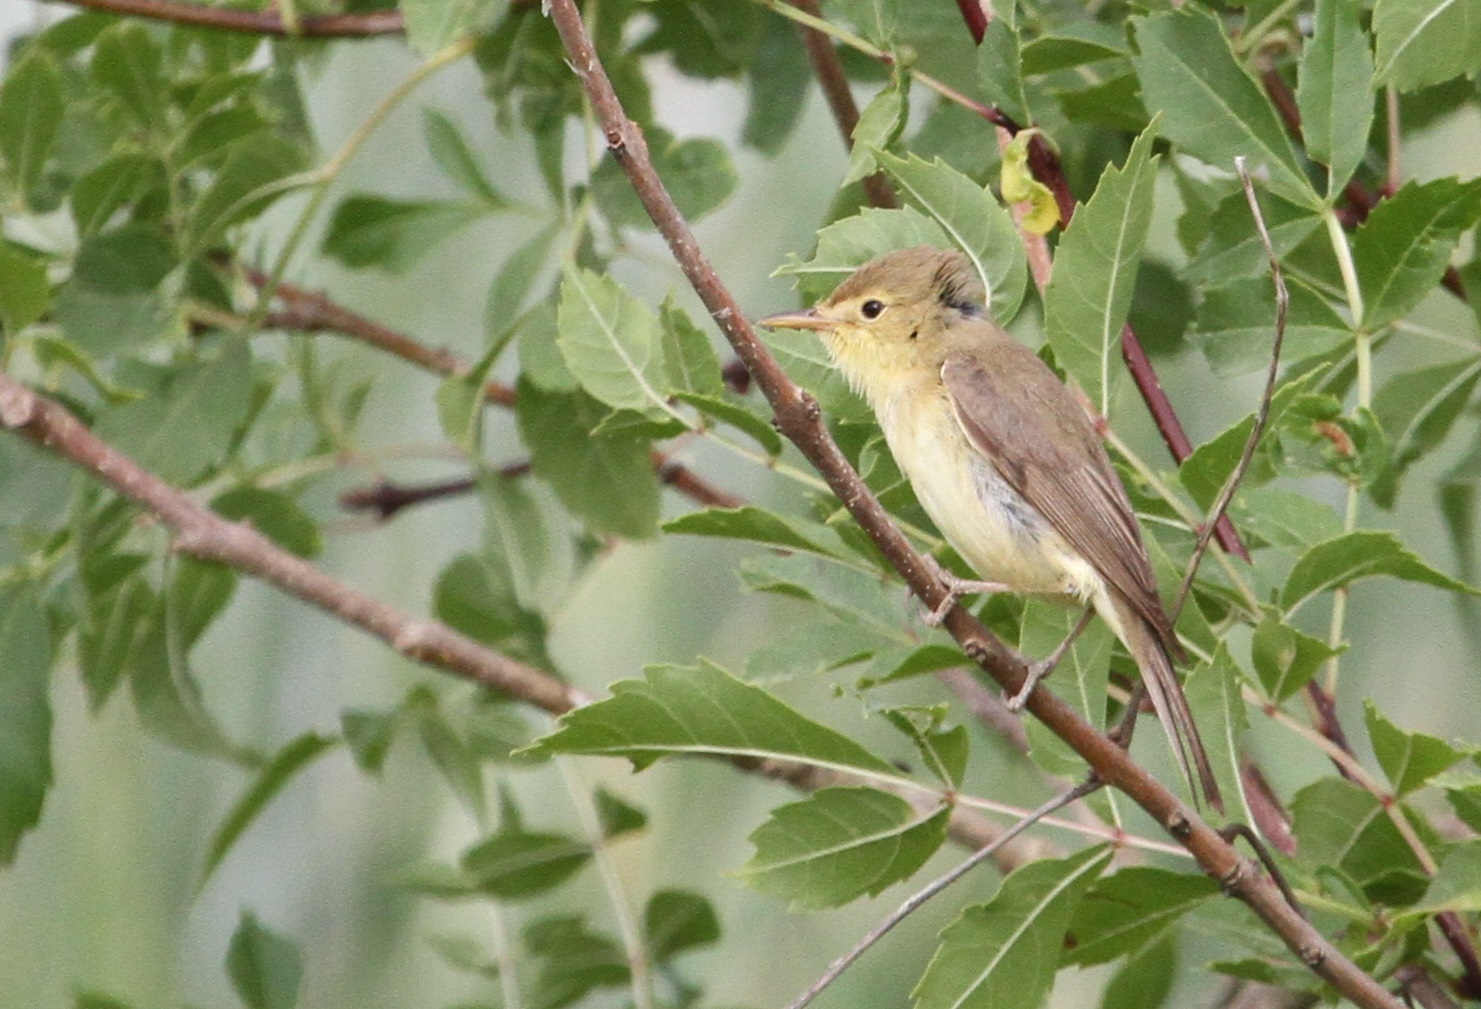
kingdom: Animalia
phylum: Chordata
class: Aves
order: Passeriformes
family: Acrocephalidae
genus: Hippolais
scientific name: Hippolais polyglotta
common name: Melodious warbler
